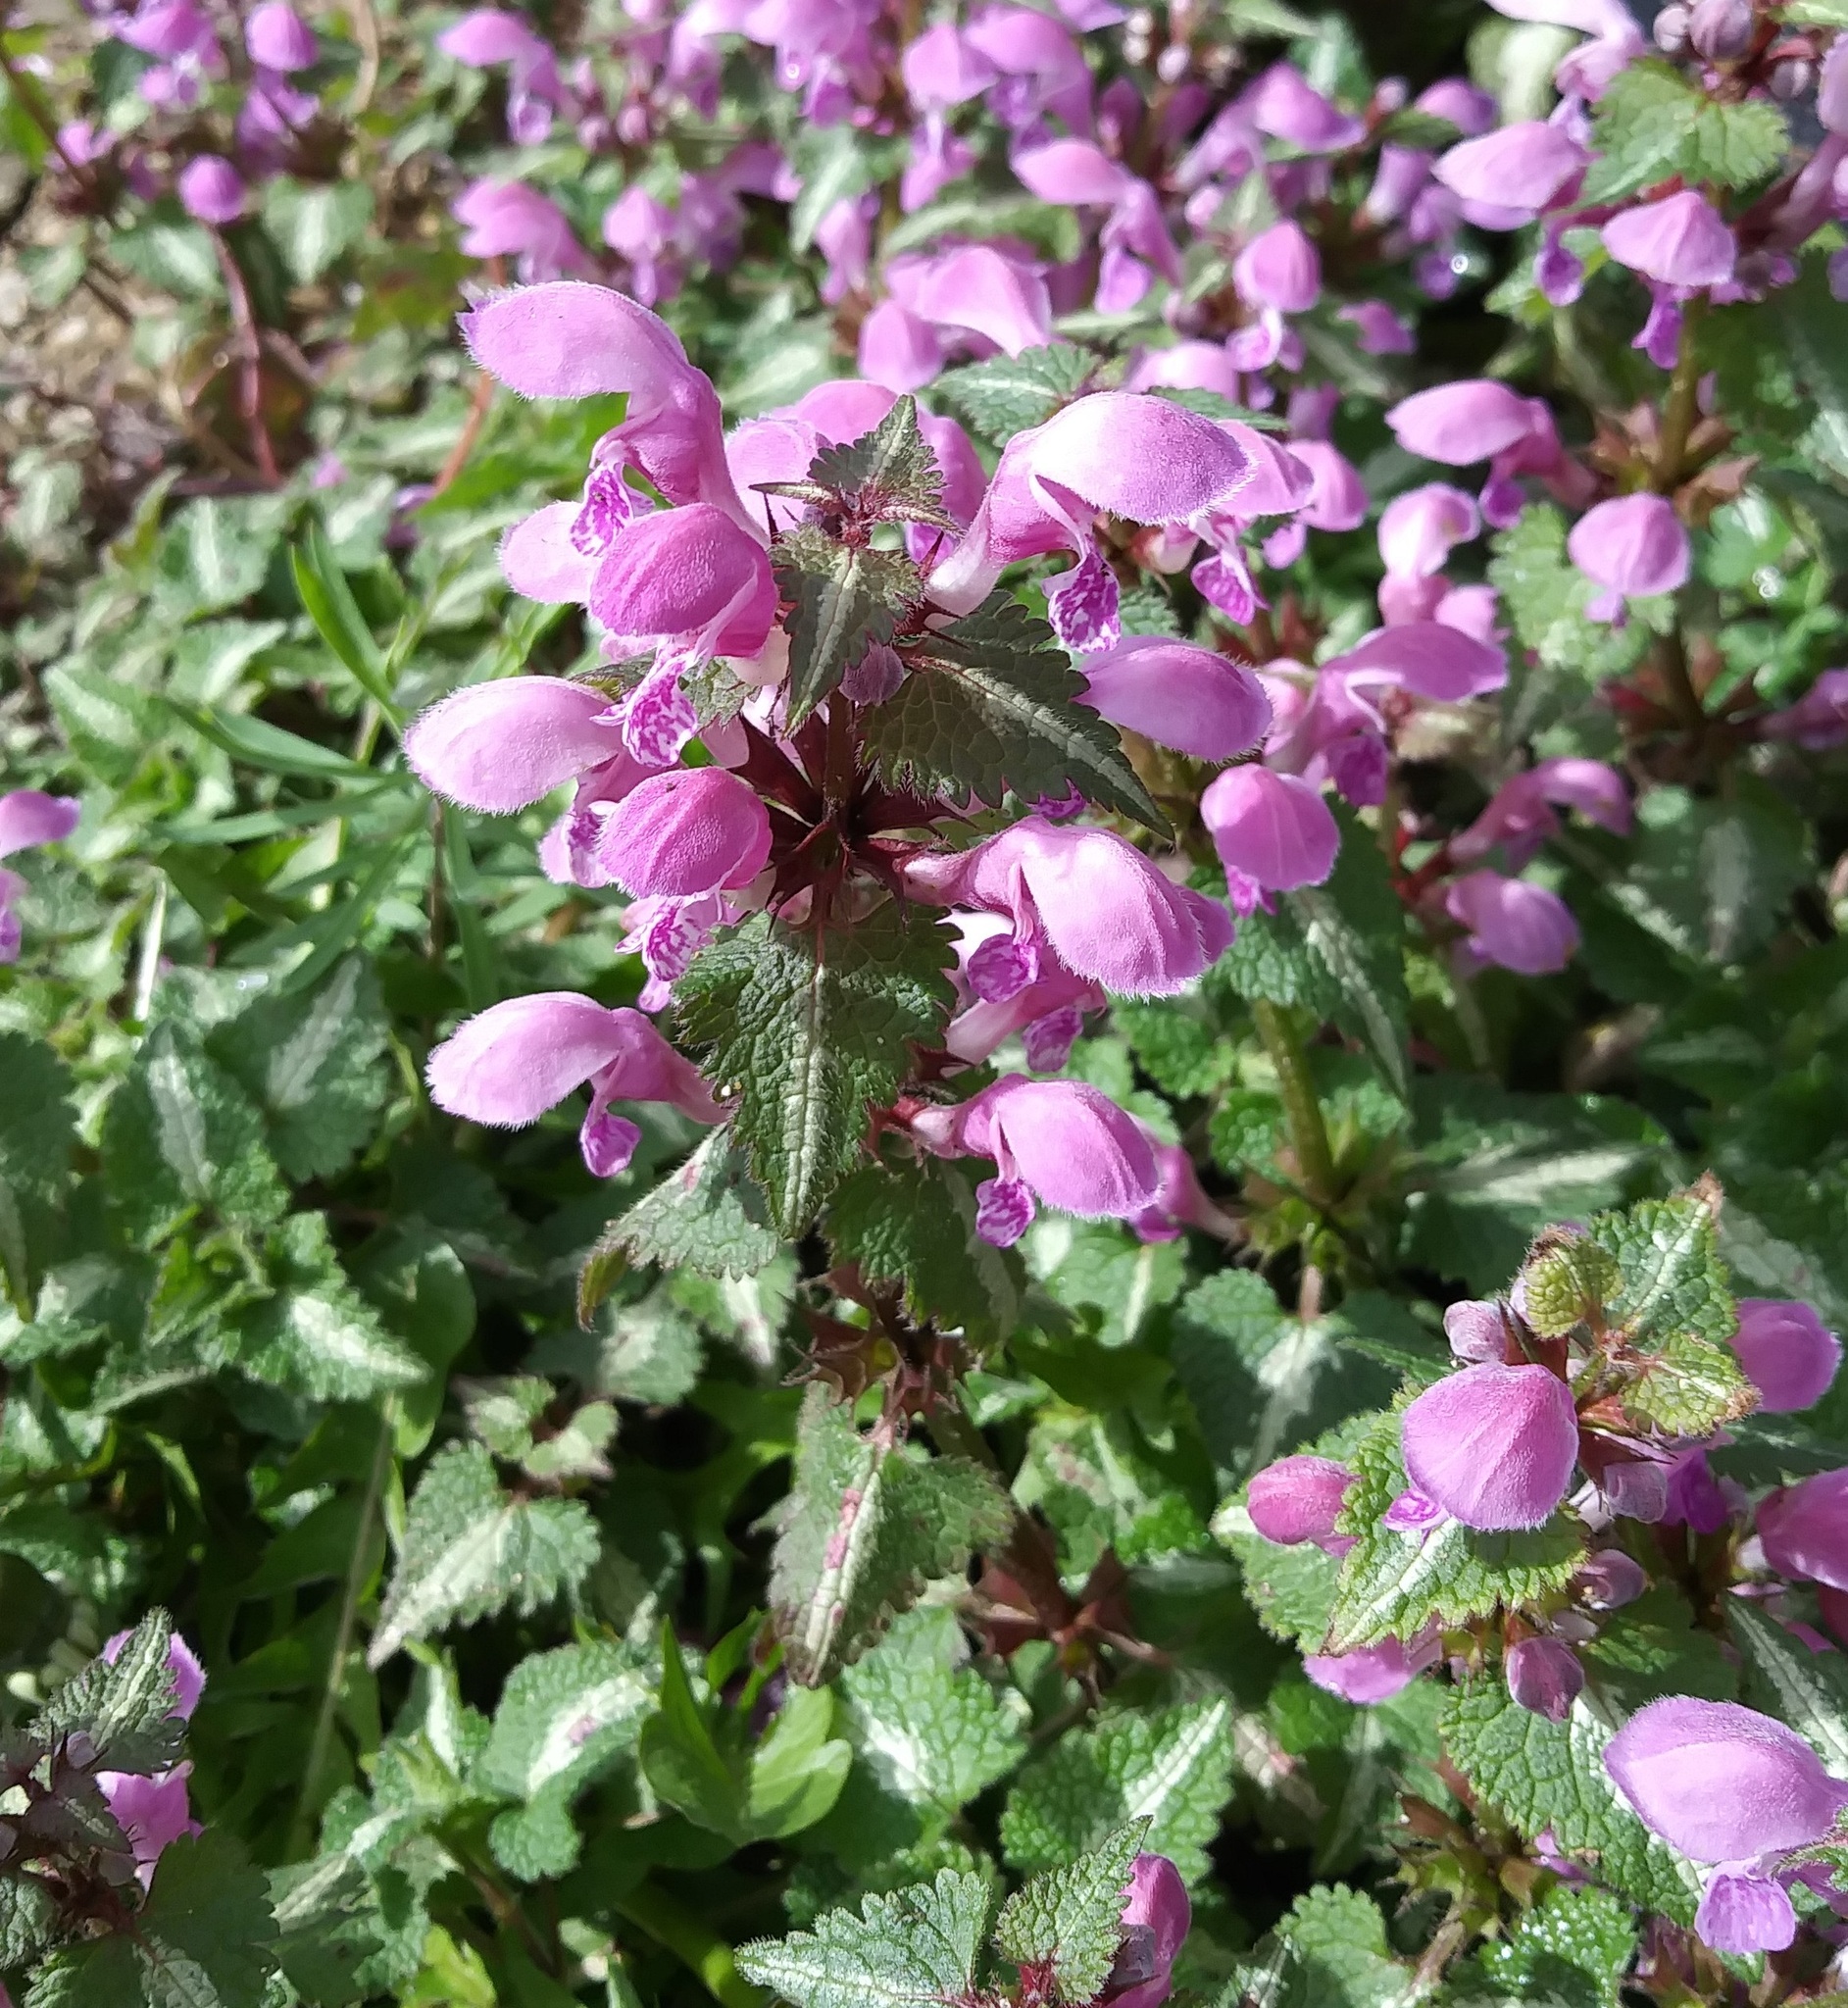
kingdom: Plantae
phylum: Tracheophyta
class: Magnoliopsida
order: Lamiales
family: Lamiaceae
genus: Lamium
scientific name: Lamium maculatum
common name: Spotted dead-nettle
